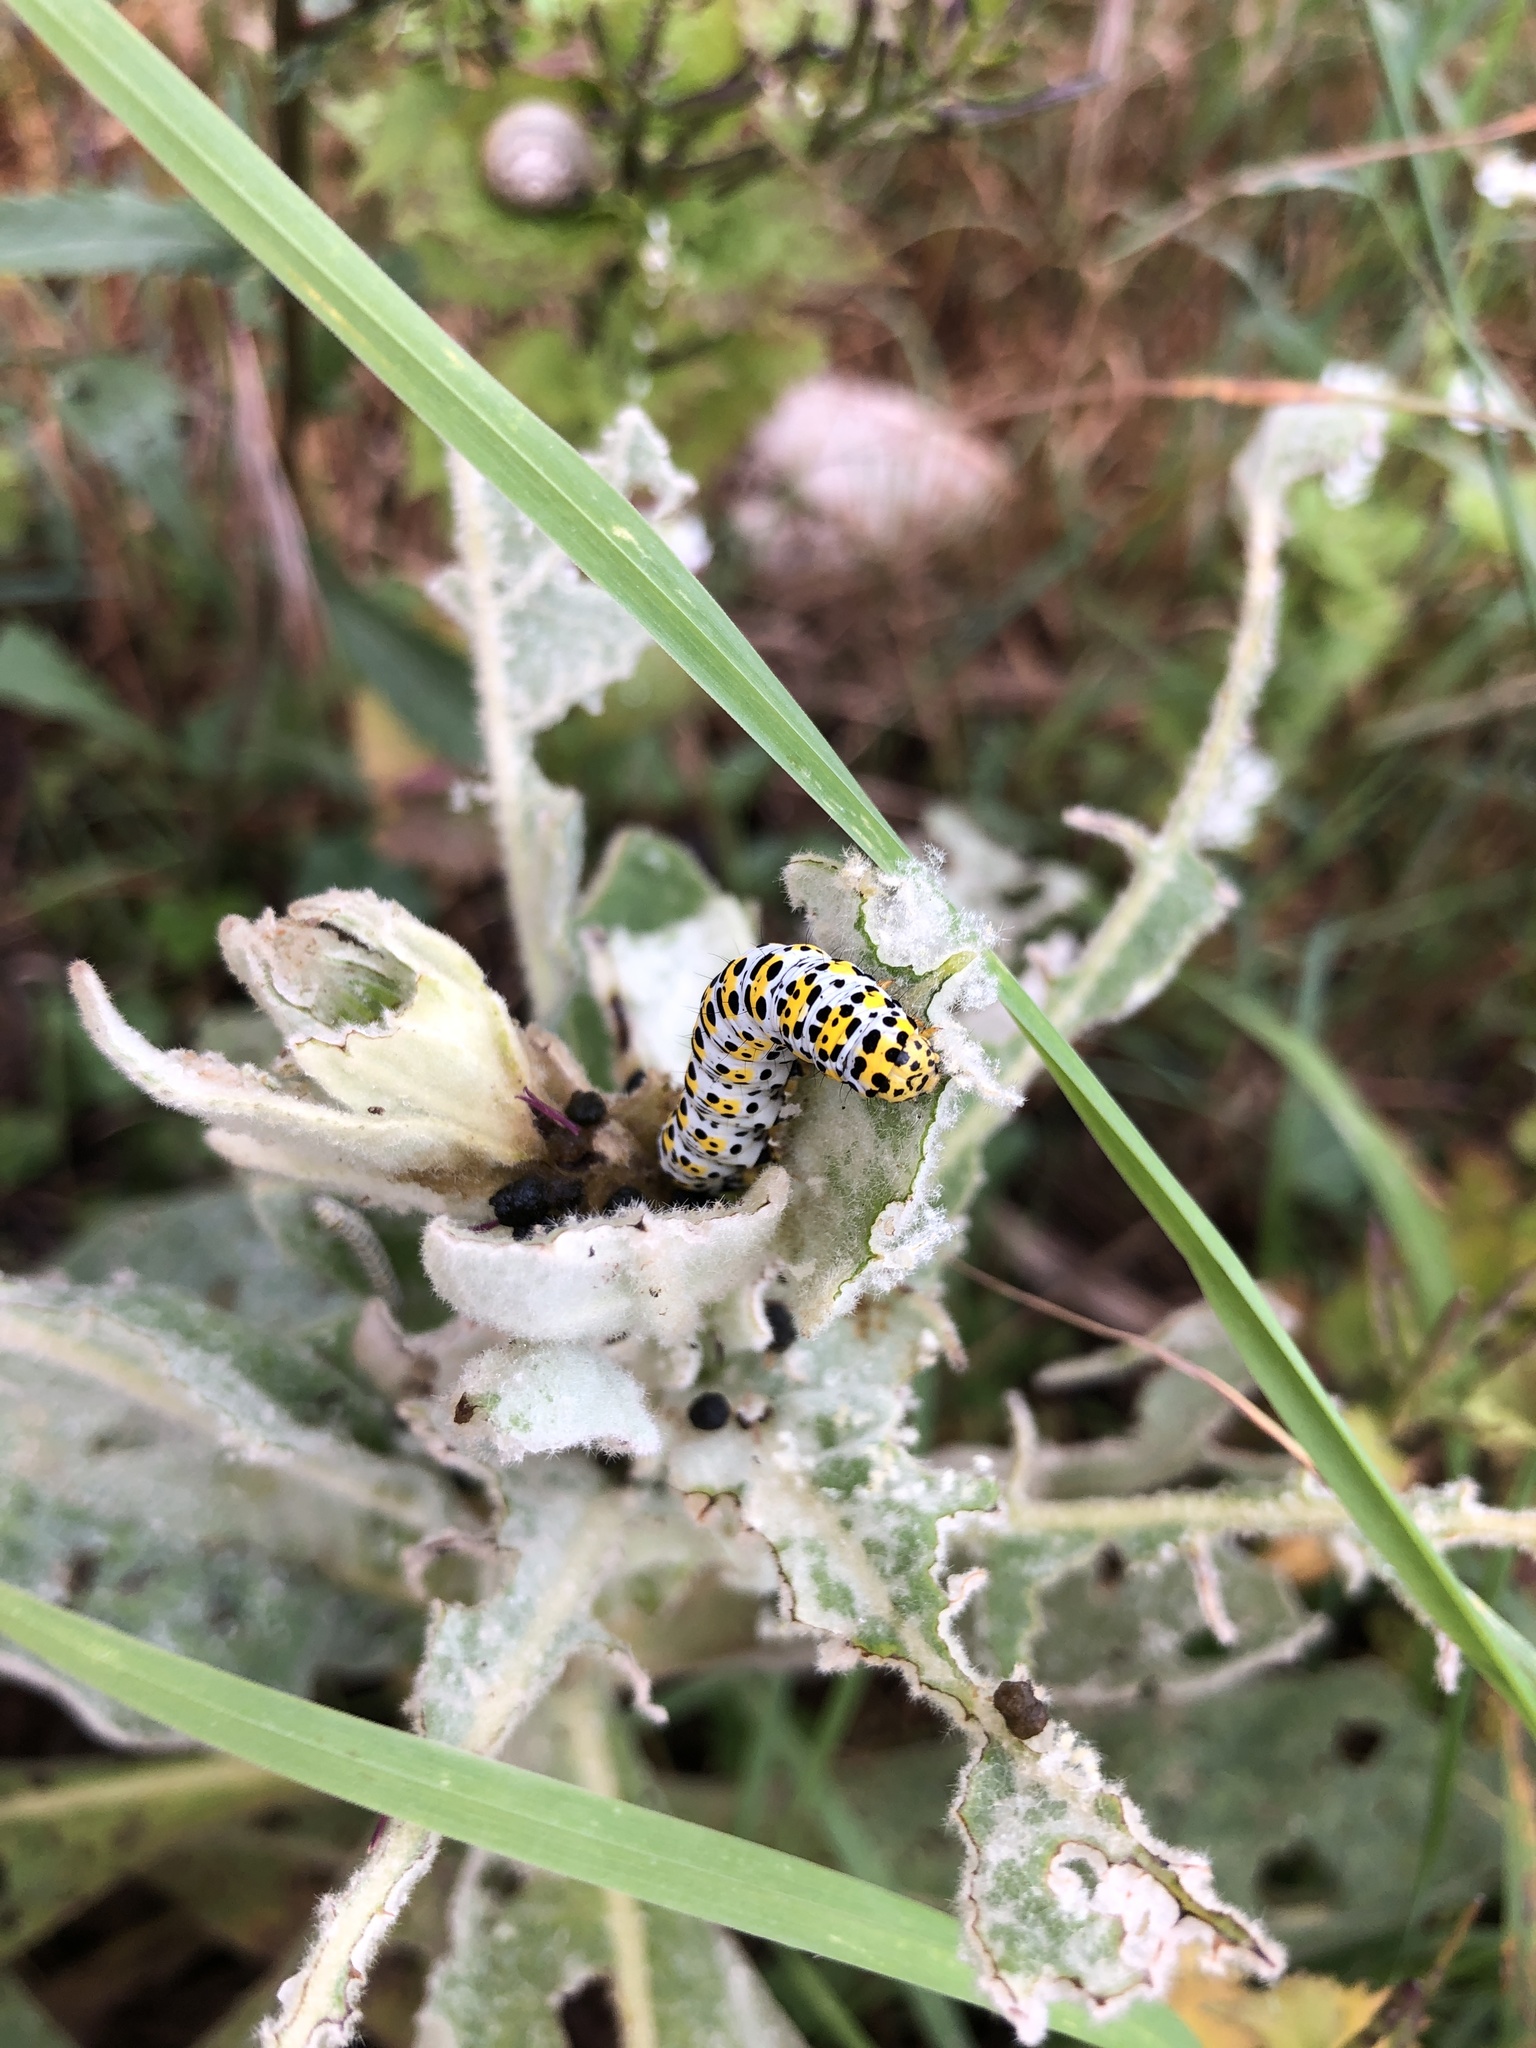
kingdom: Animalia
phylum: Arthropoda
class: Insecta
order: Lepidoptera
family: Noctuidae
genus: Cucullia
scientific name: Cucullia verbasci
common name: Mullein
